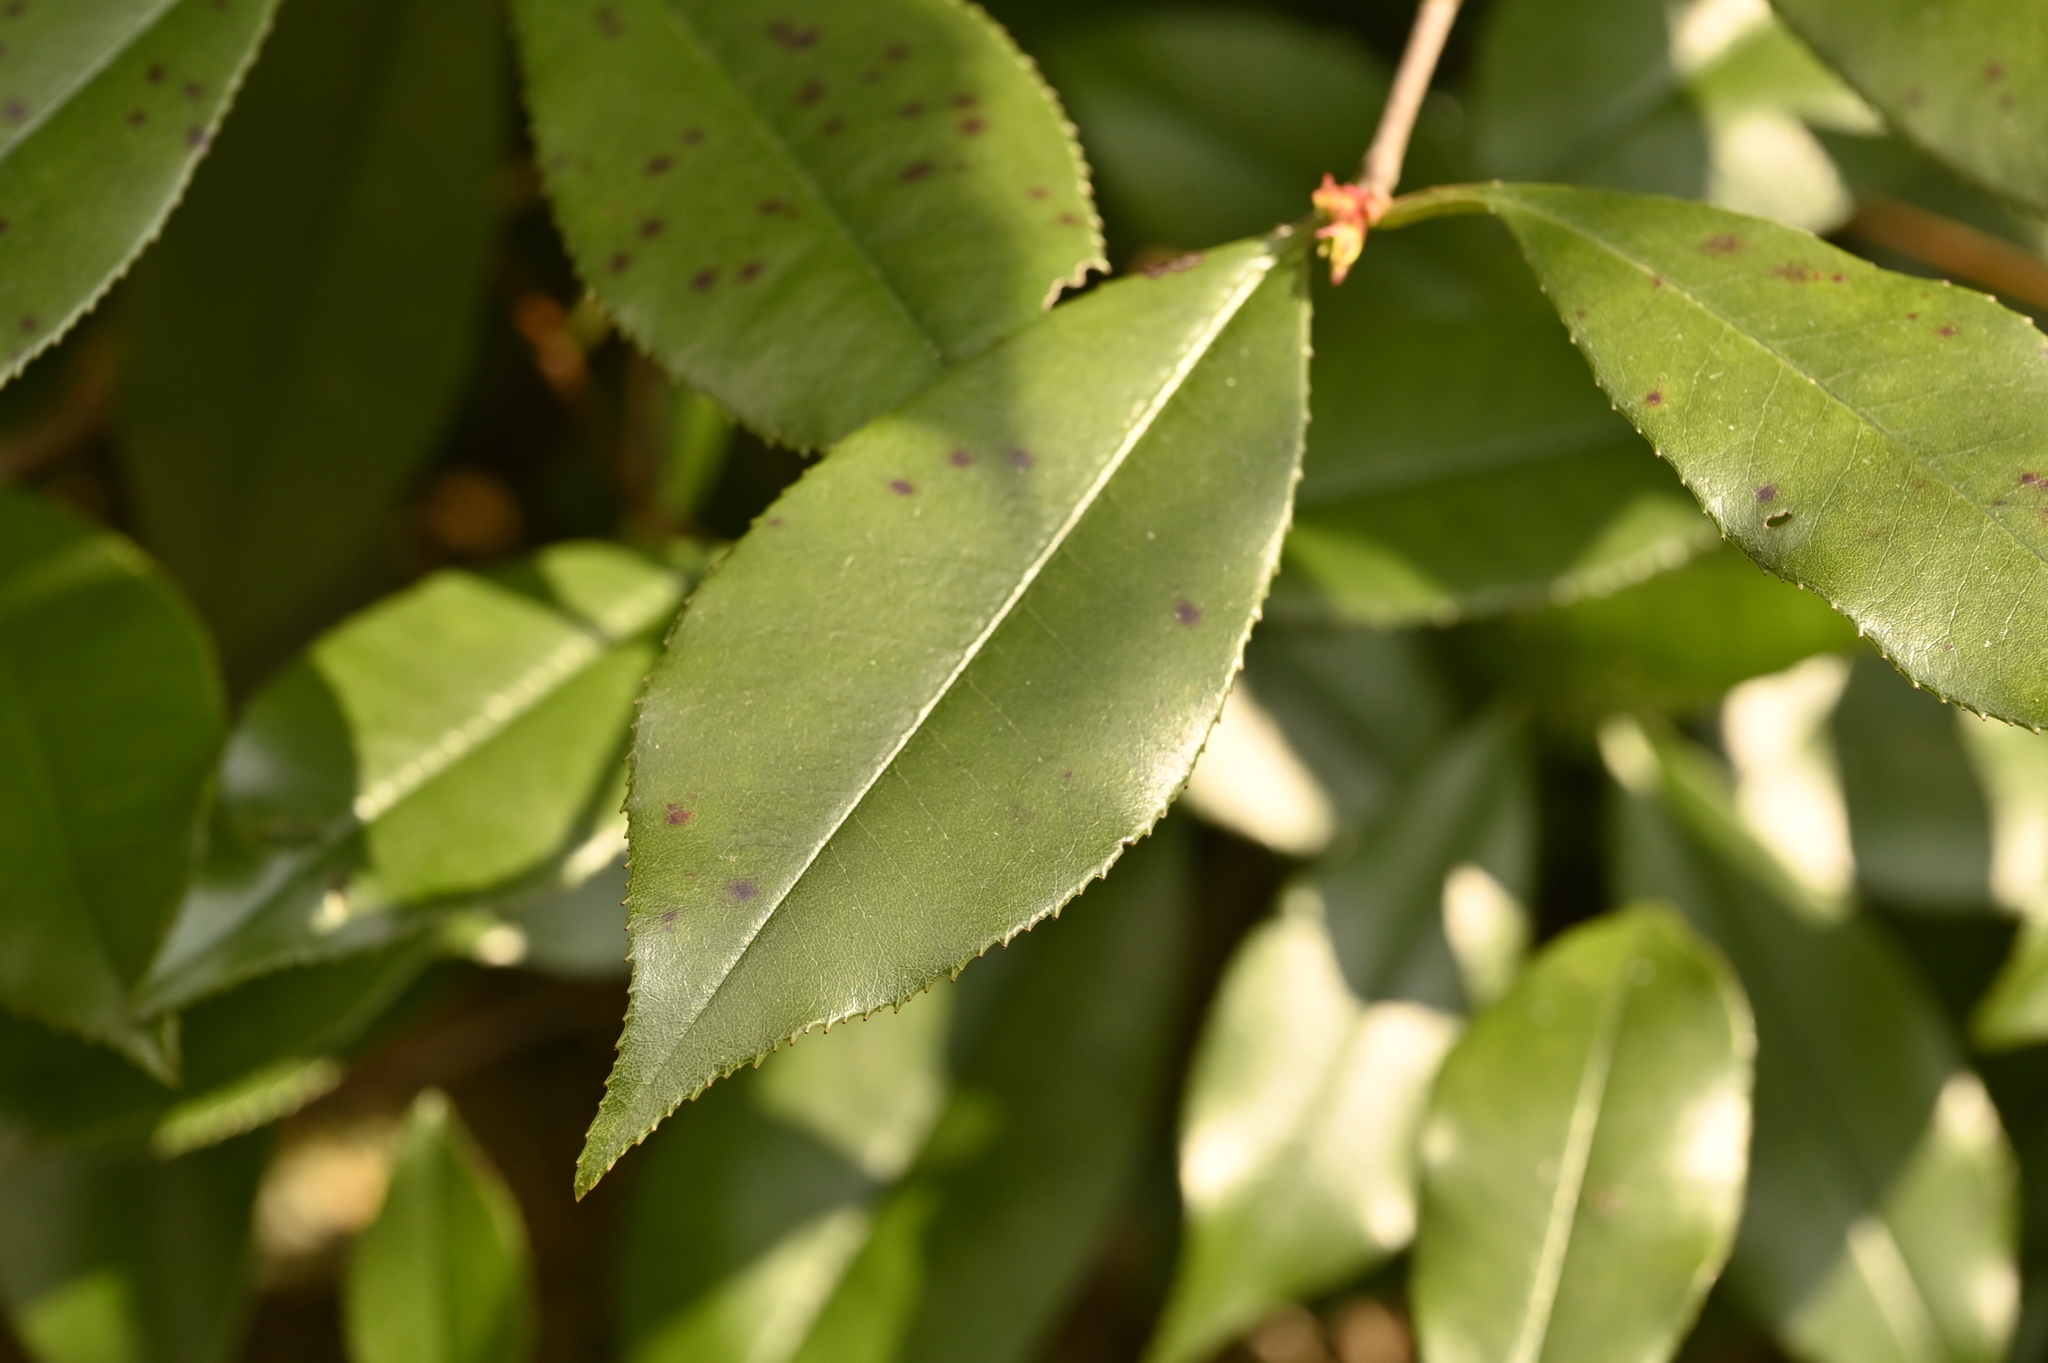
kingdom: Plantae
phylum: Tracheophyta
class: Magnoliopsida
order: Rosales
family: Rosaceae
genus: Photinia
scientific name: Photinia glabra
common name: Japanese photinia
